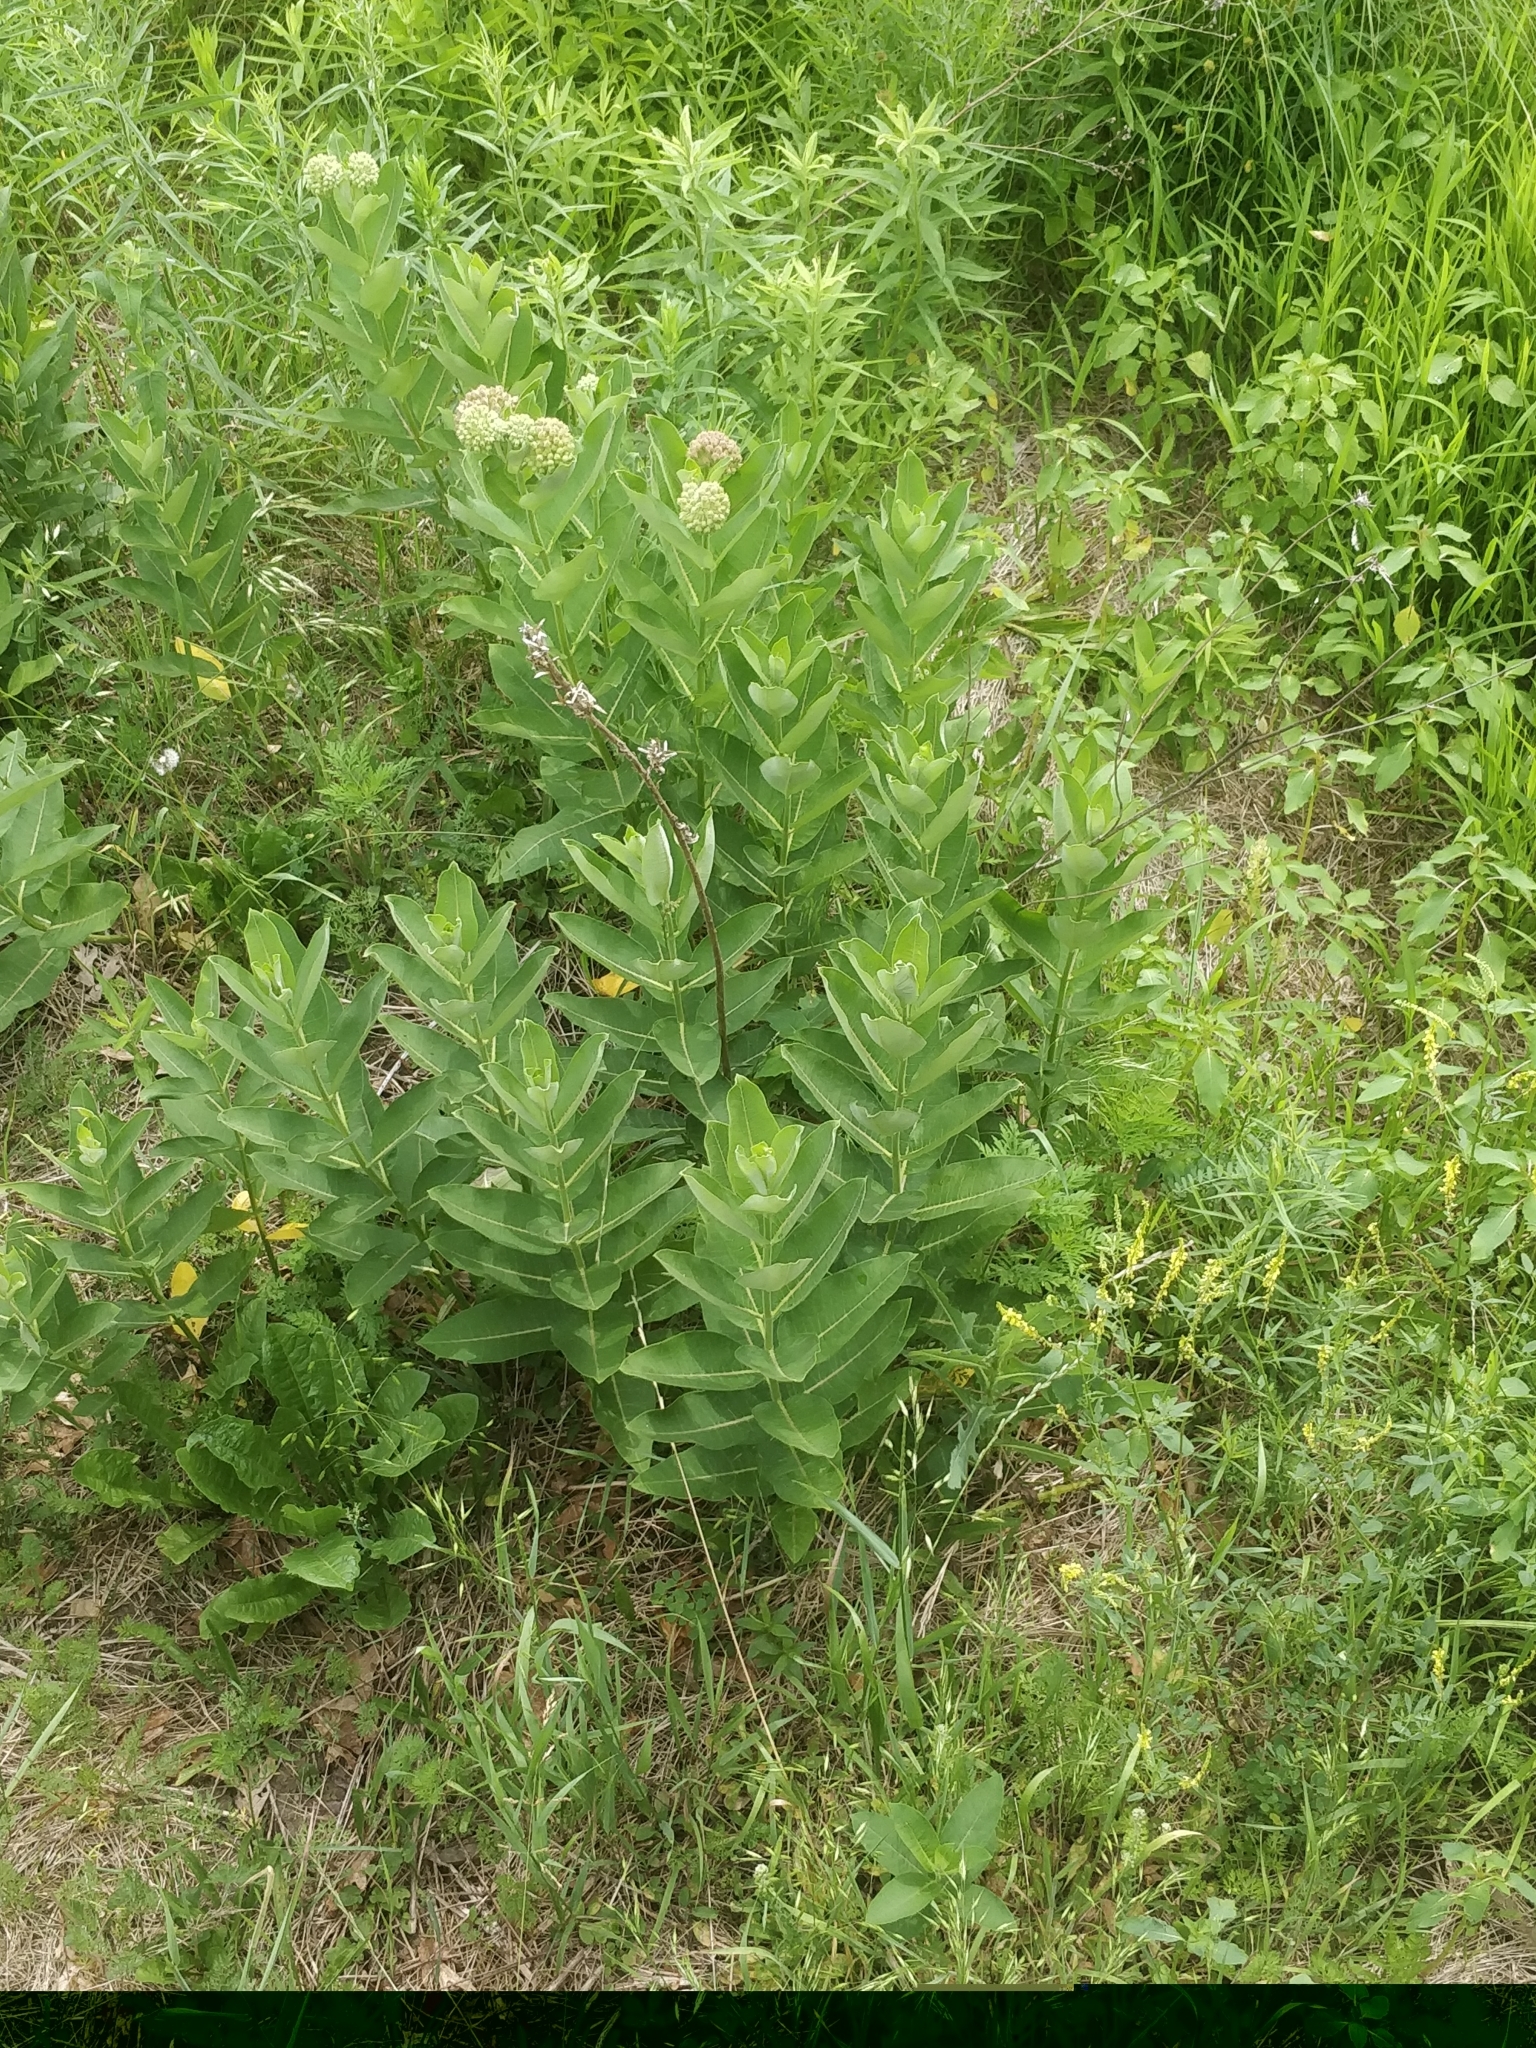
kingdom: Plantae
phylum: Tracheophyta
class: Magnoliopsida
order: Gentianales
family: Apocynaceae
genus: Asclepias
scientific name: Asclepias syriaca
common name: Common milkweed
